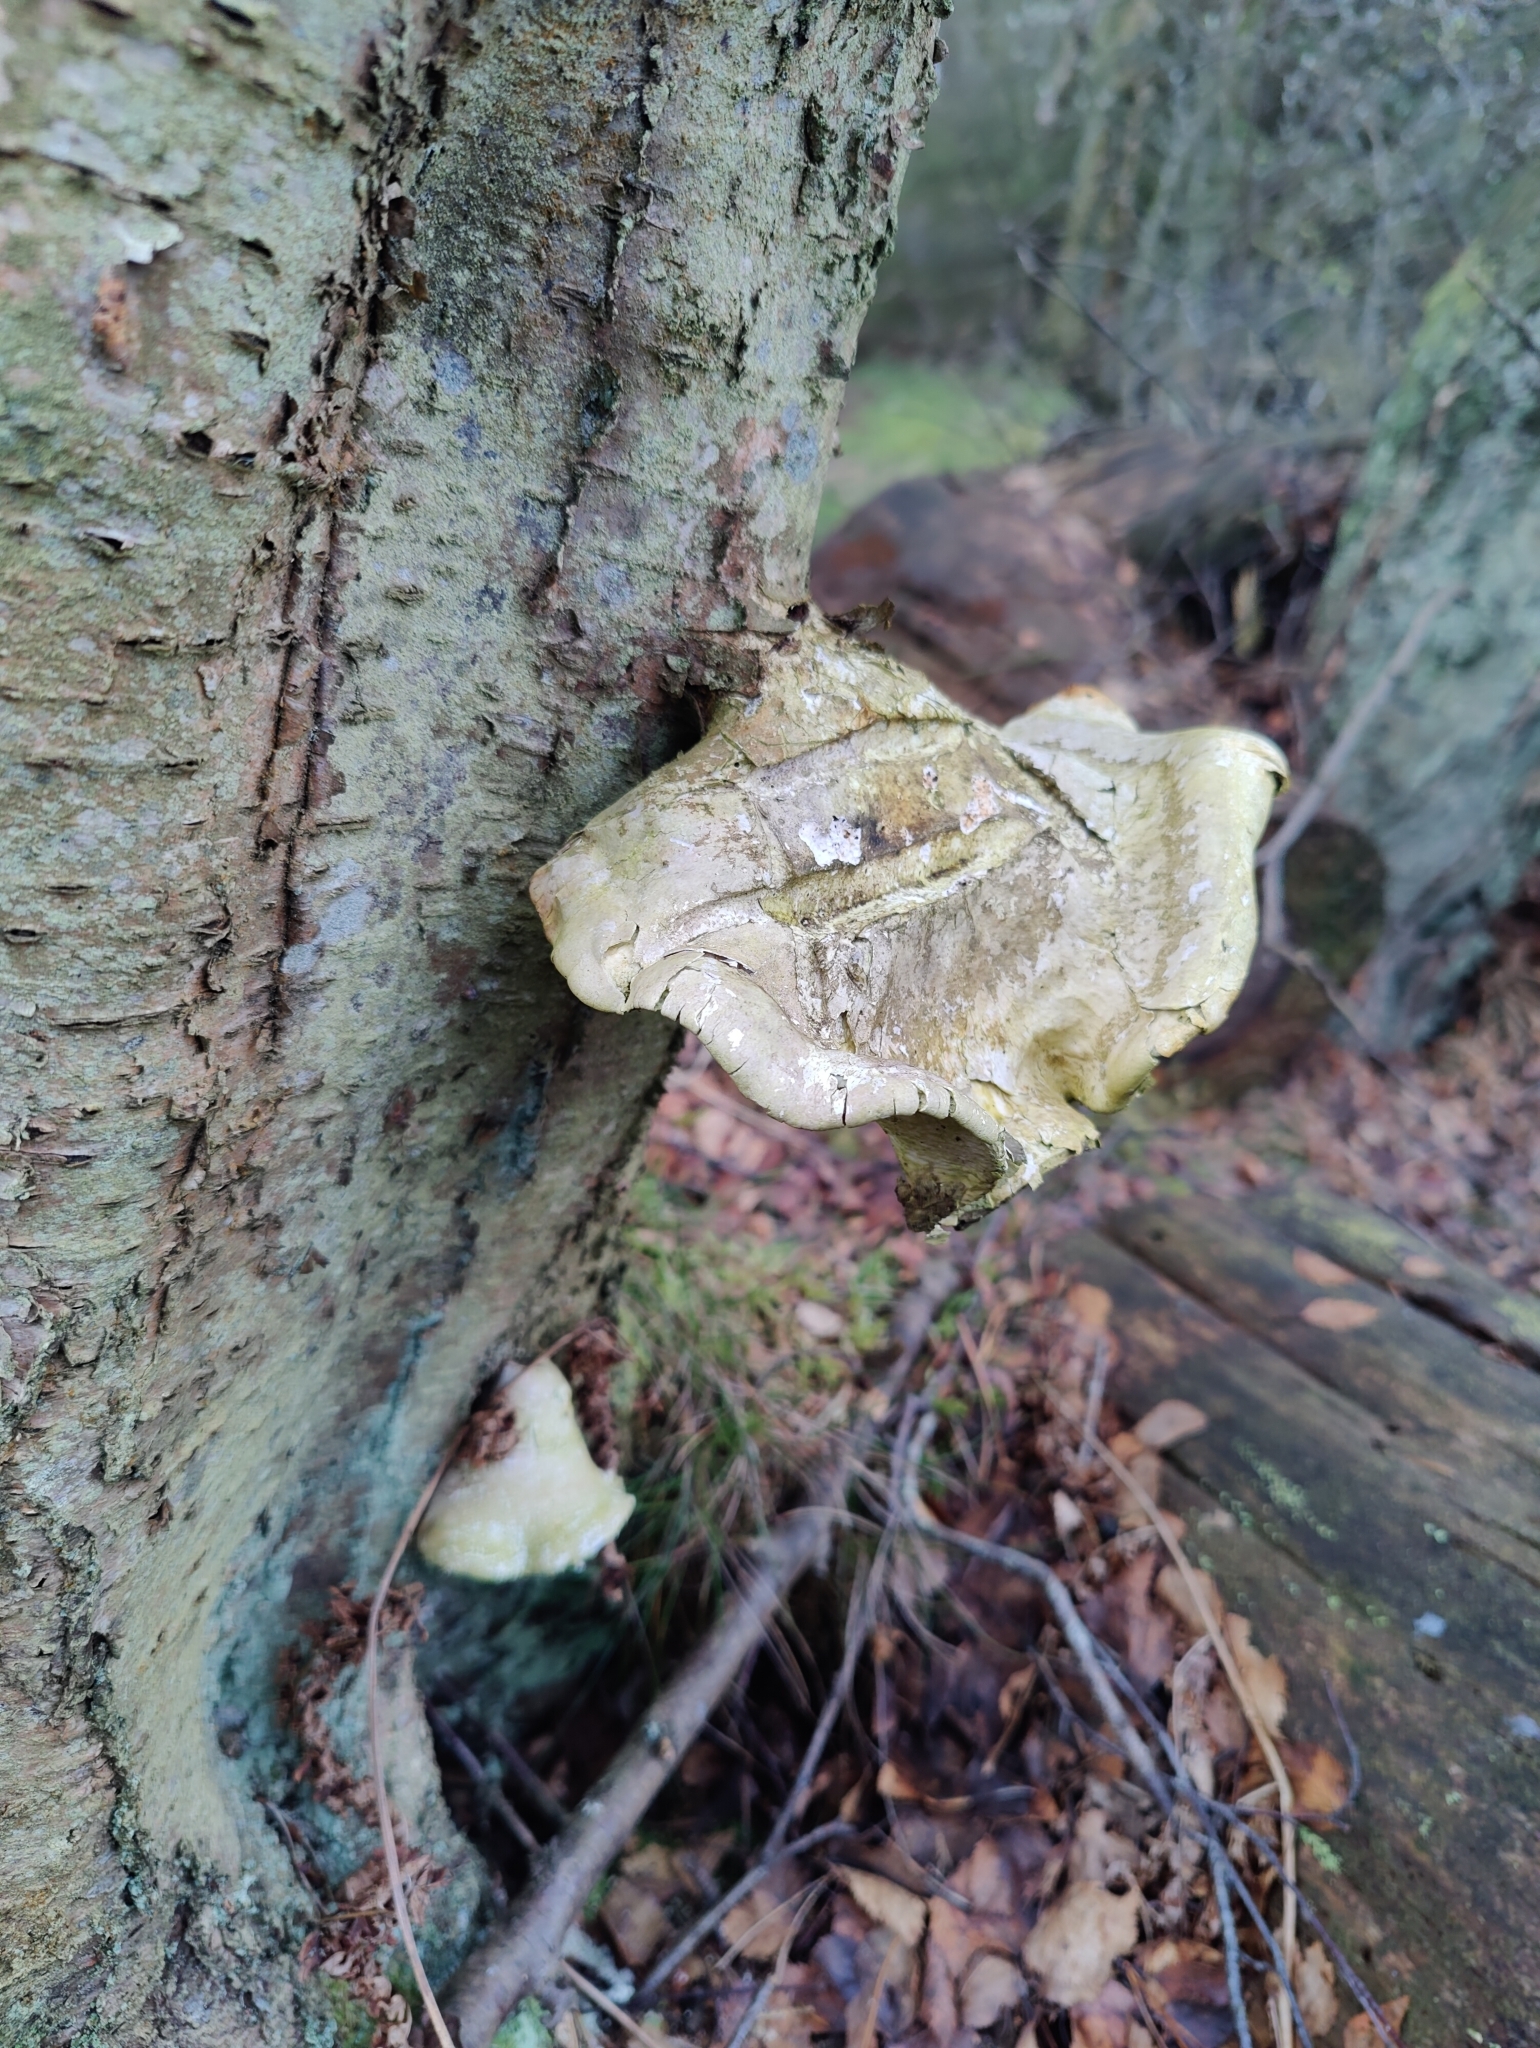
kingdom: Fungi
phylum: Basidiomycota
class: Agaricomycetes
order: Polyporales
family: Fomitopsidaceae
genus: Fomitopsis
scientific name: Fomitopsis betulina
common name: Birch polypore
